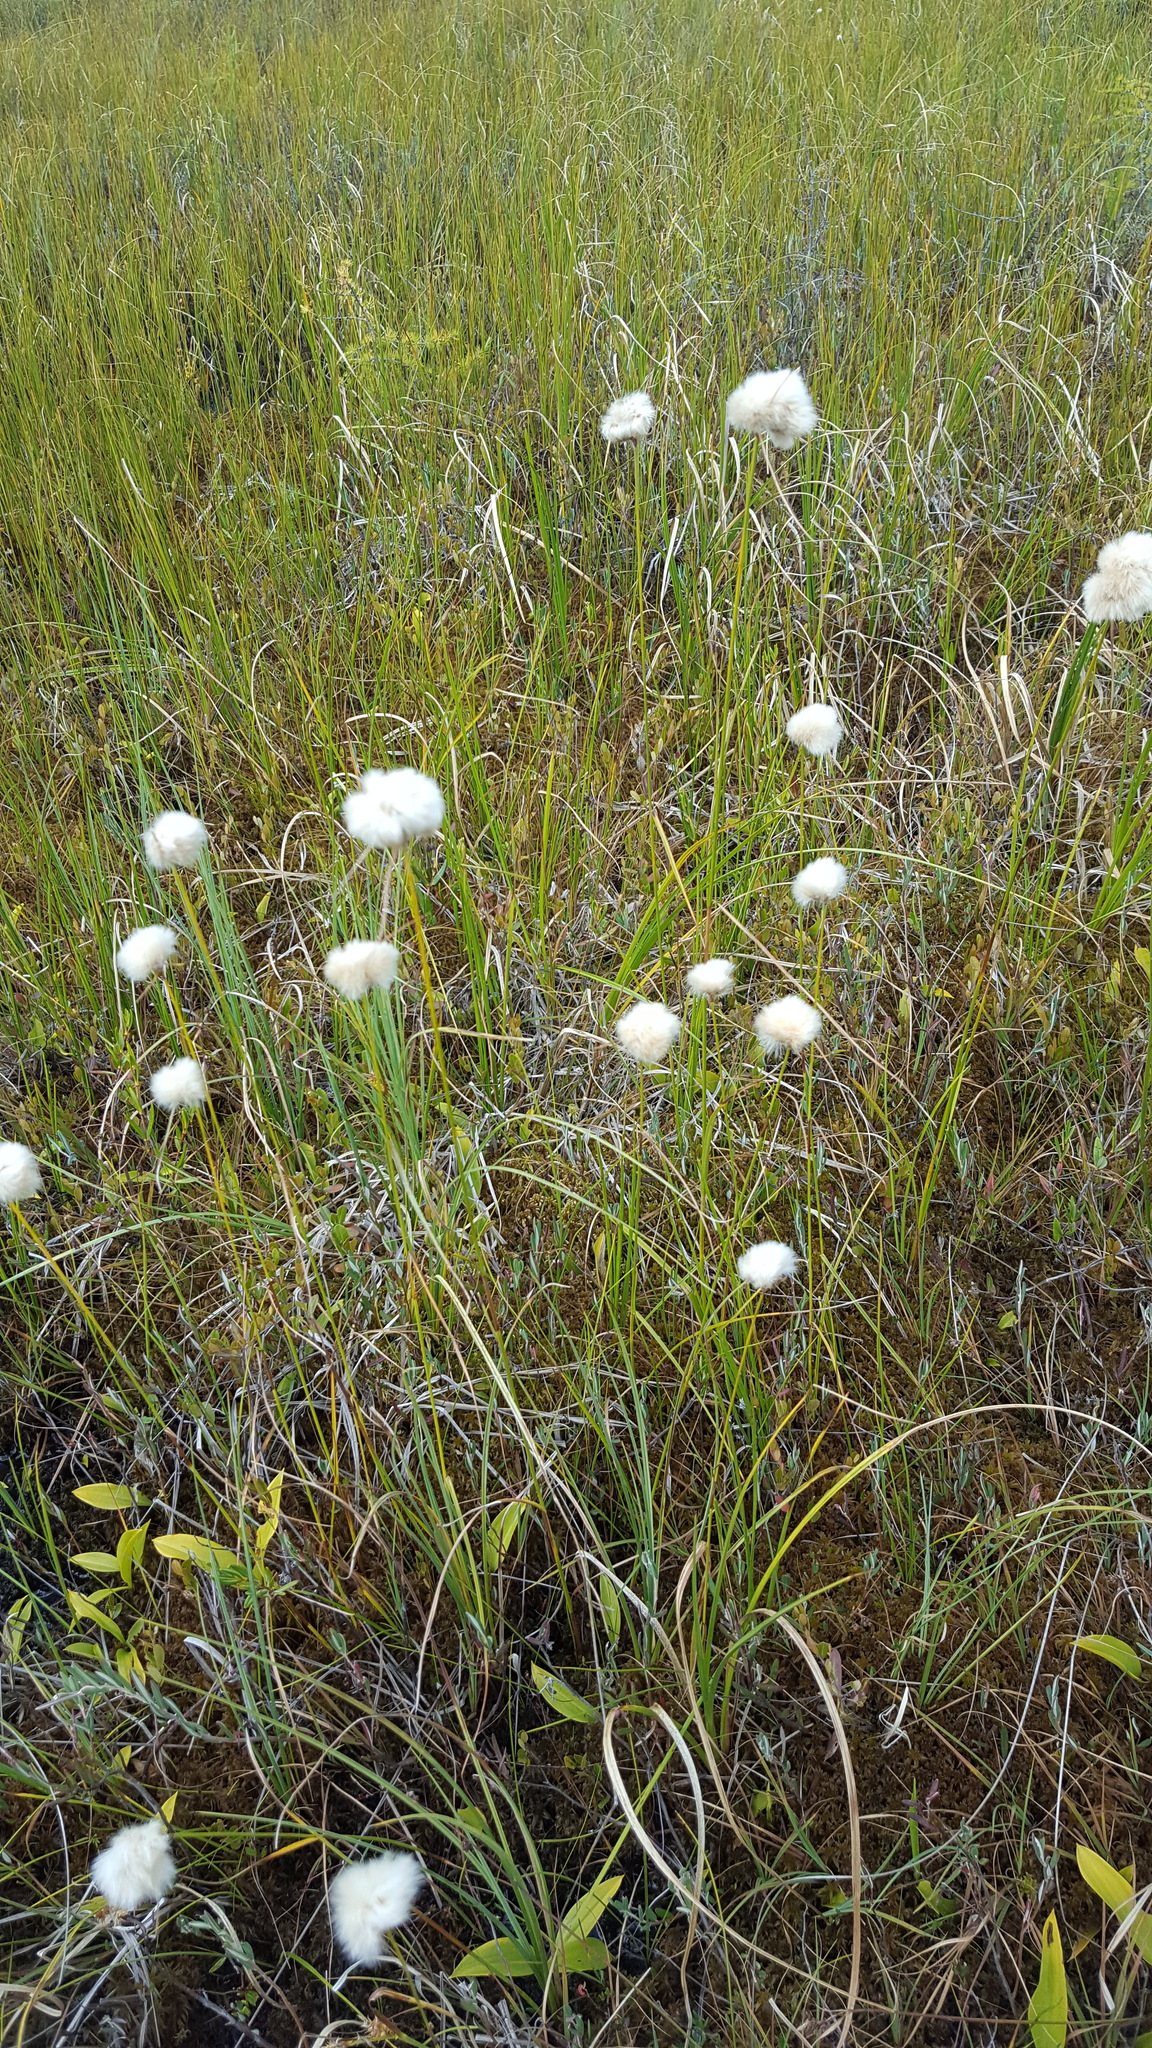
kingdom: Plantae
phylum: Tracheophyta
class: Liliopsida
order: Poales
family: Cyperaceae
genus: Eriophorum
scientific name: Eriophorum virginicum
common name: Tawny cottongrass
